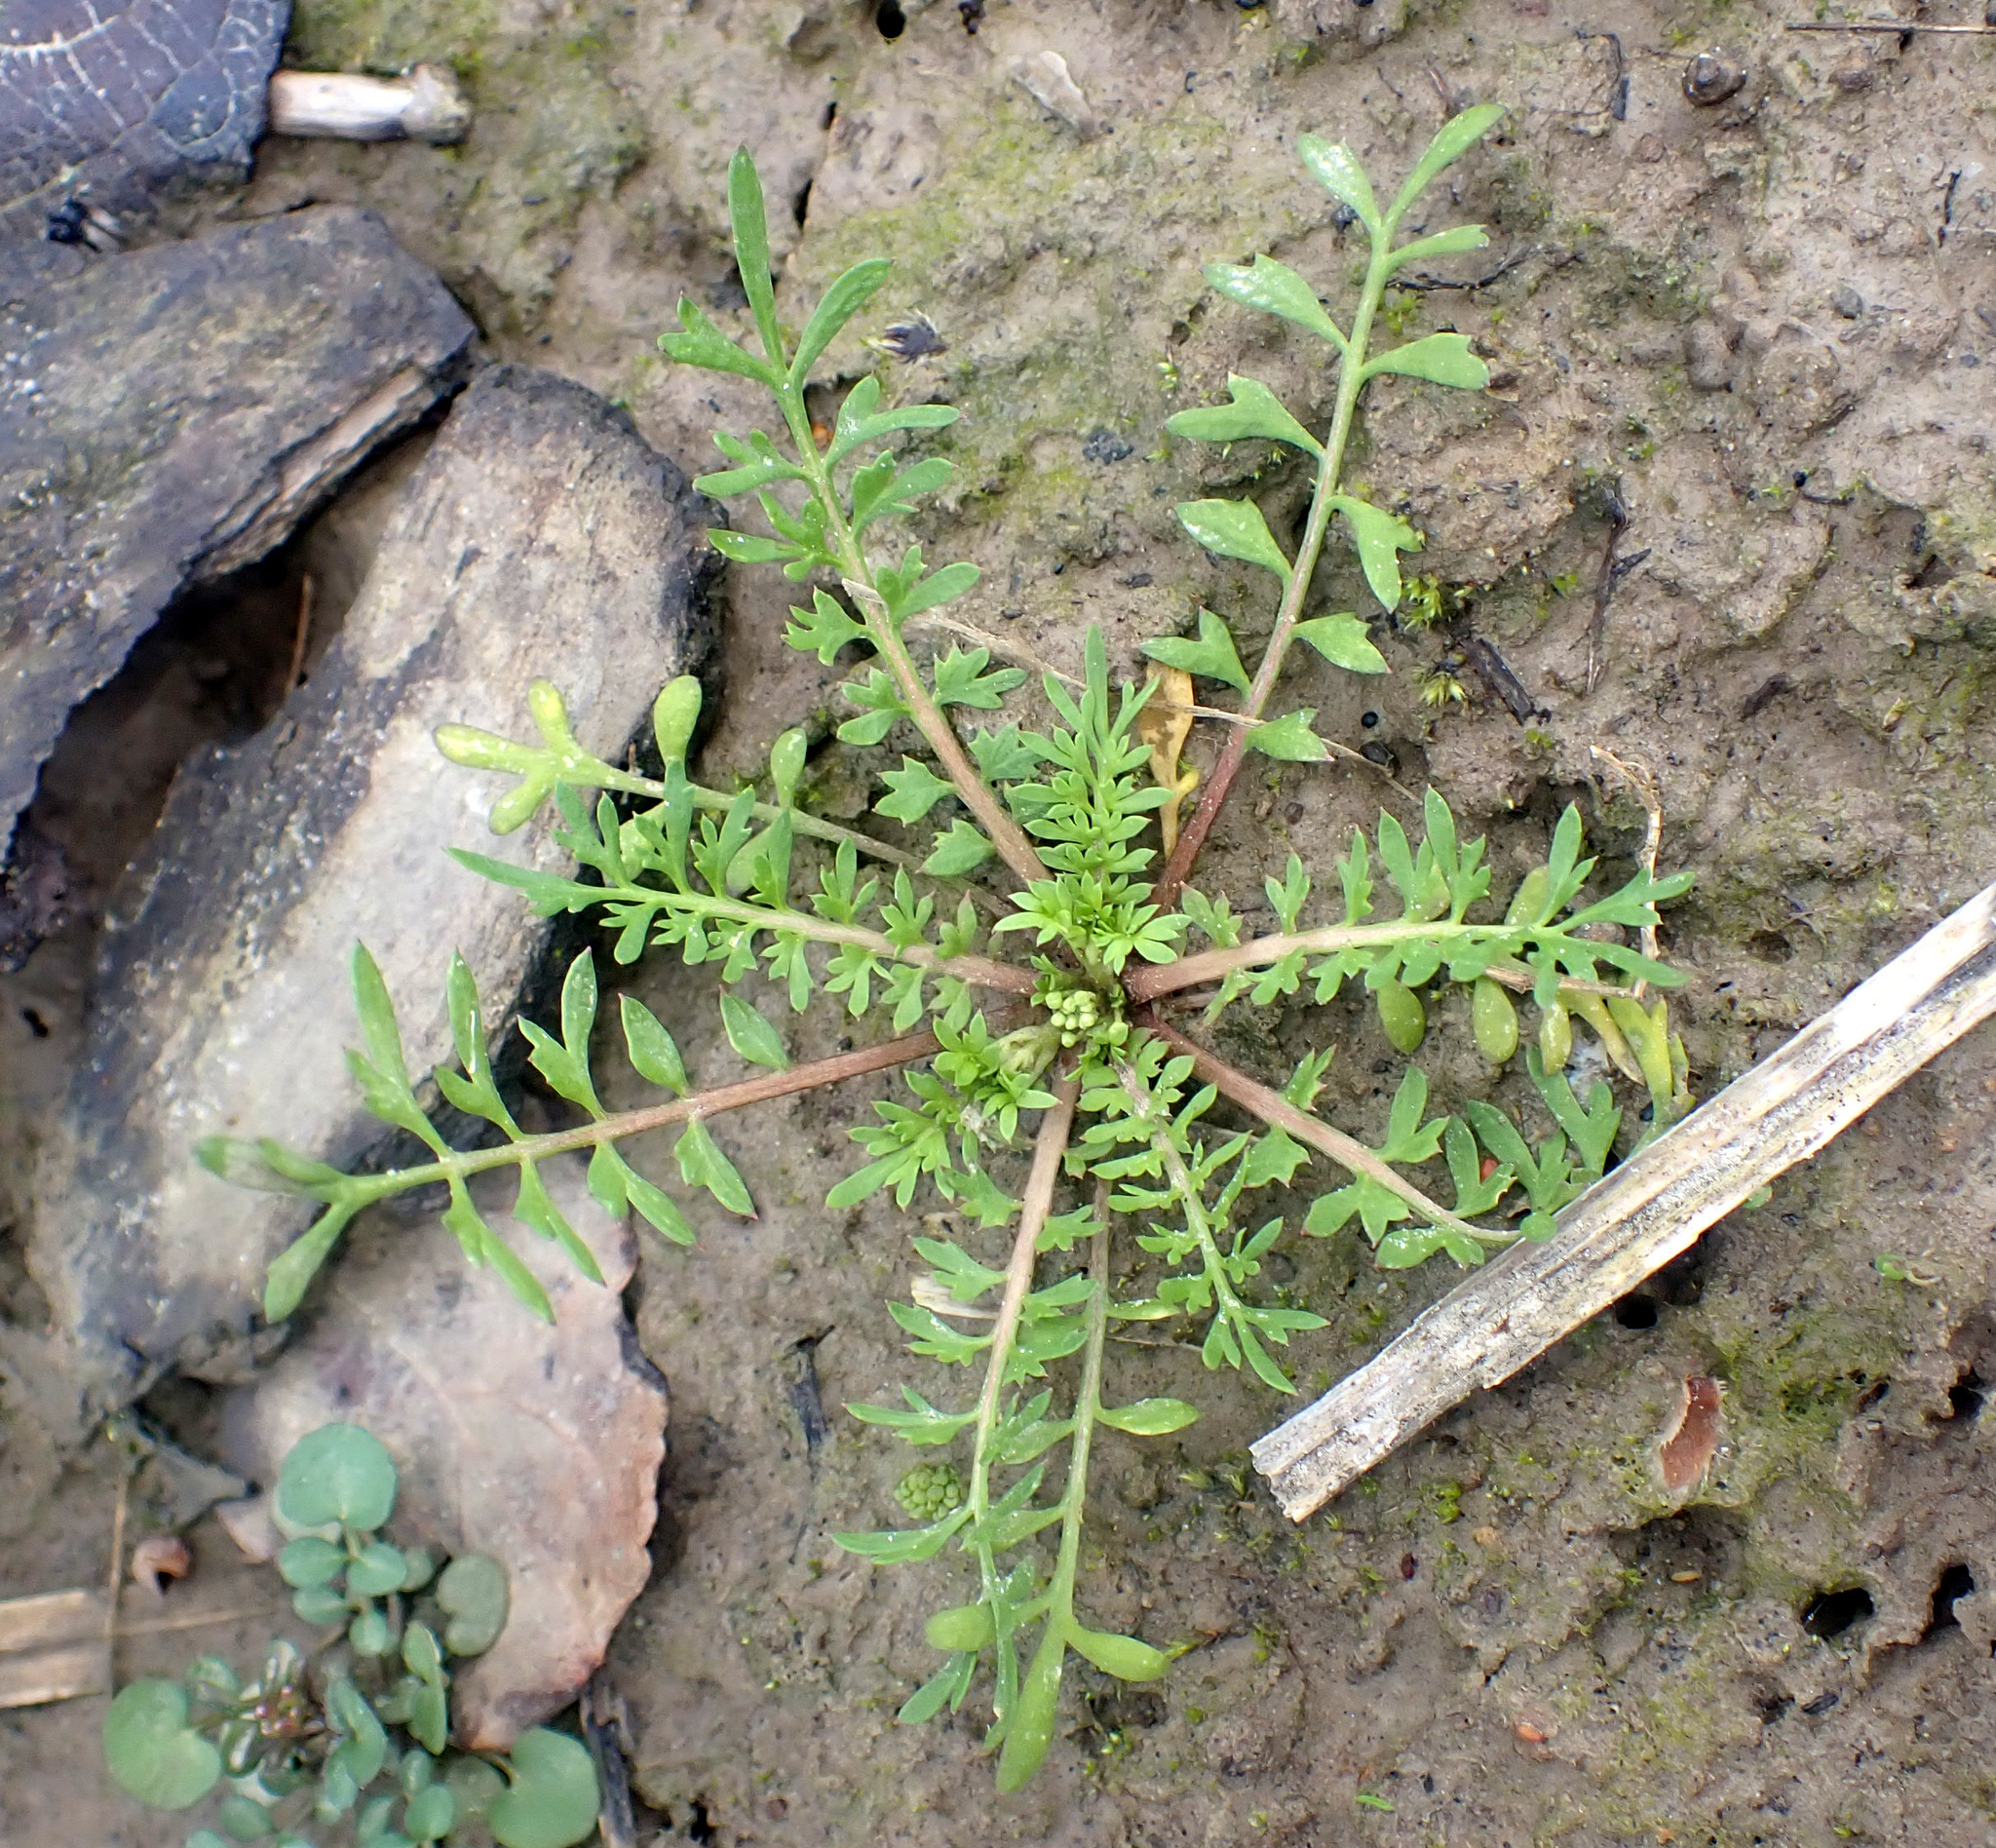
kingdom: Plantae
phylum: Tracheophyta
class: Magnoliopsida
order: Brassicales
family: Brassicaceae
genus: Lepidium
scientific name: Lepidium didymum
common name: Lesser swinecress
